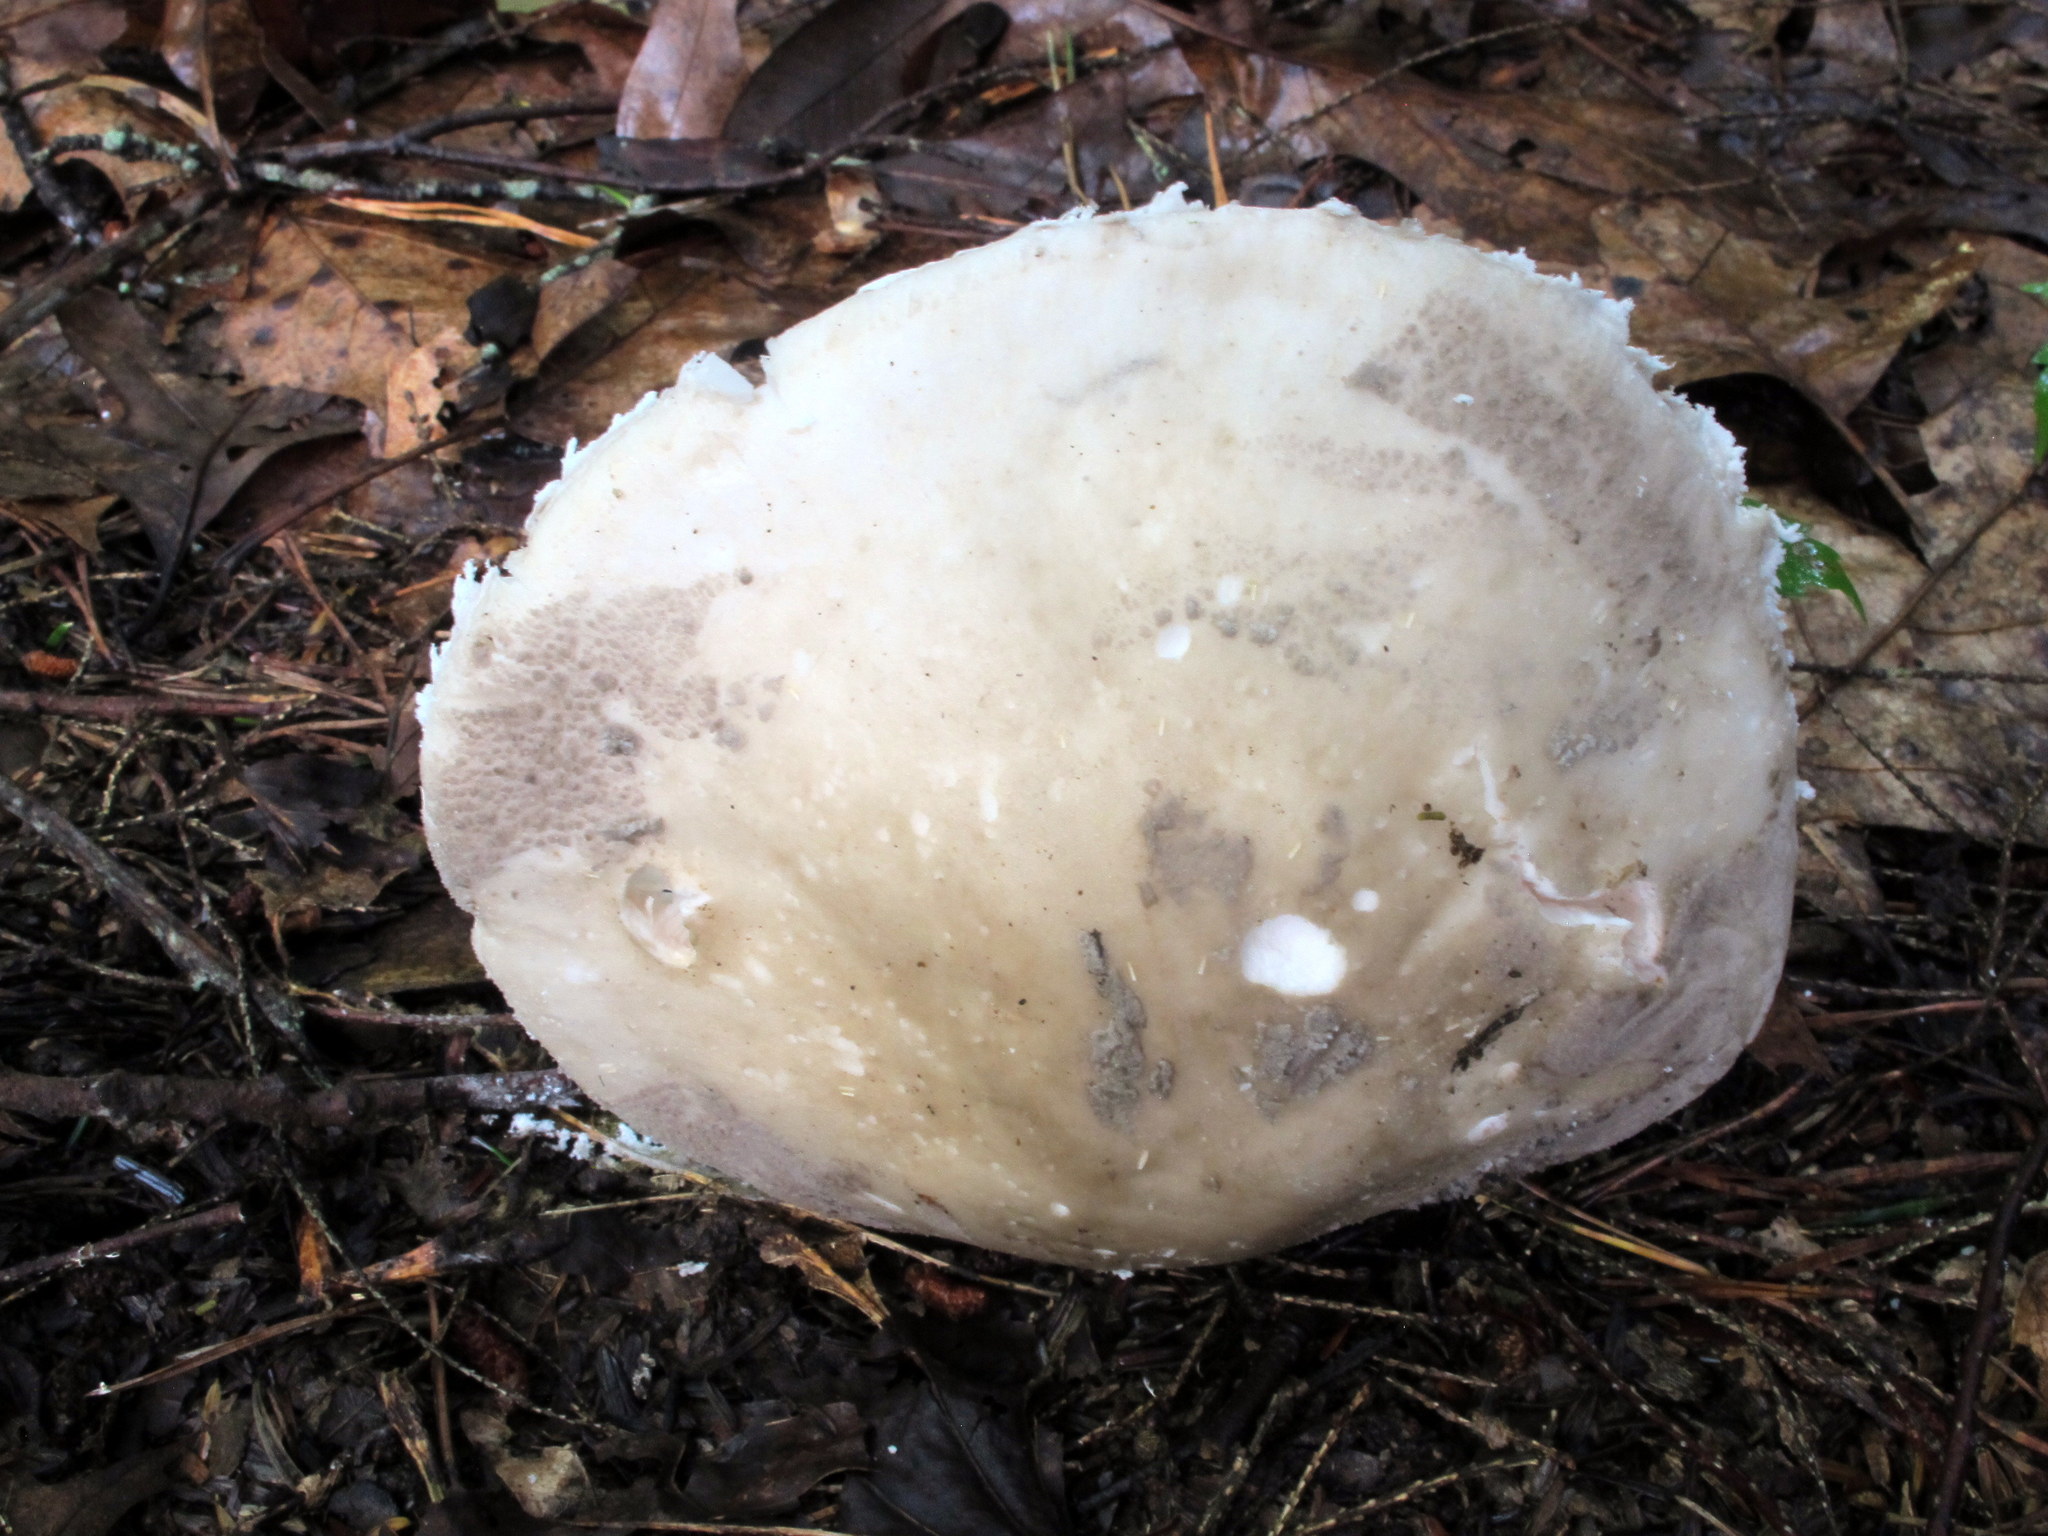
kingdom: Fungi
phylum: Basidiomycota
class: Agaricomycetes
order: Agaricales
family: Amanitaceae
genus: Amanita
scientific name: Amanita chlorinosma
